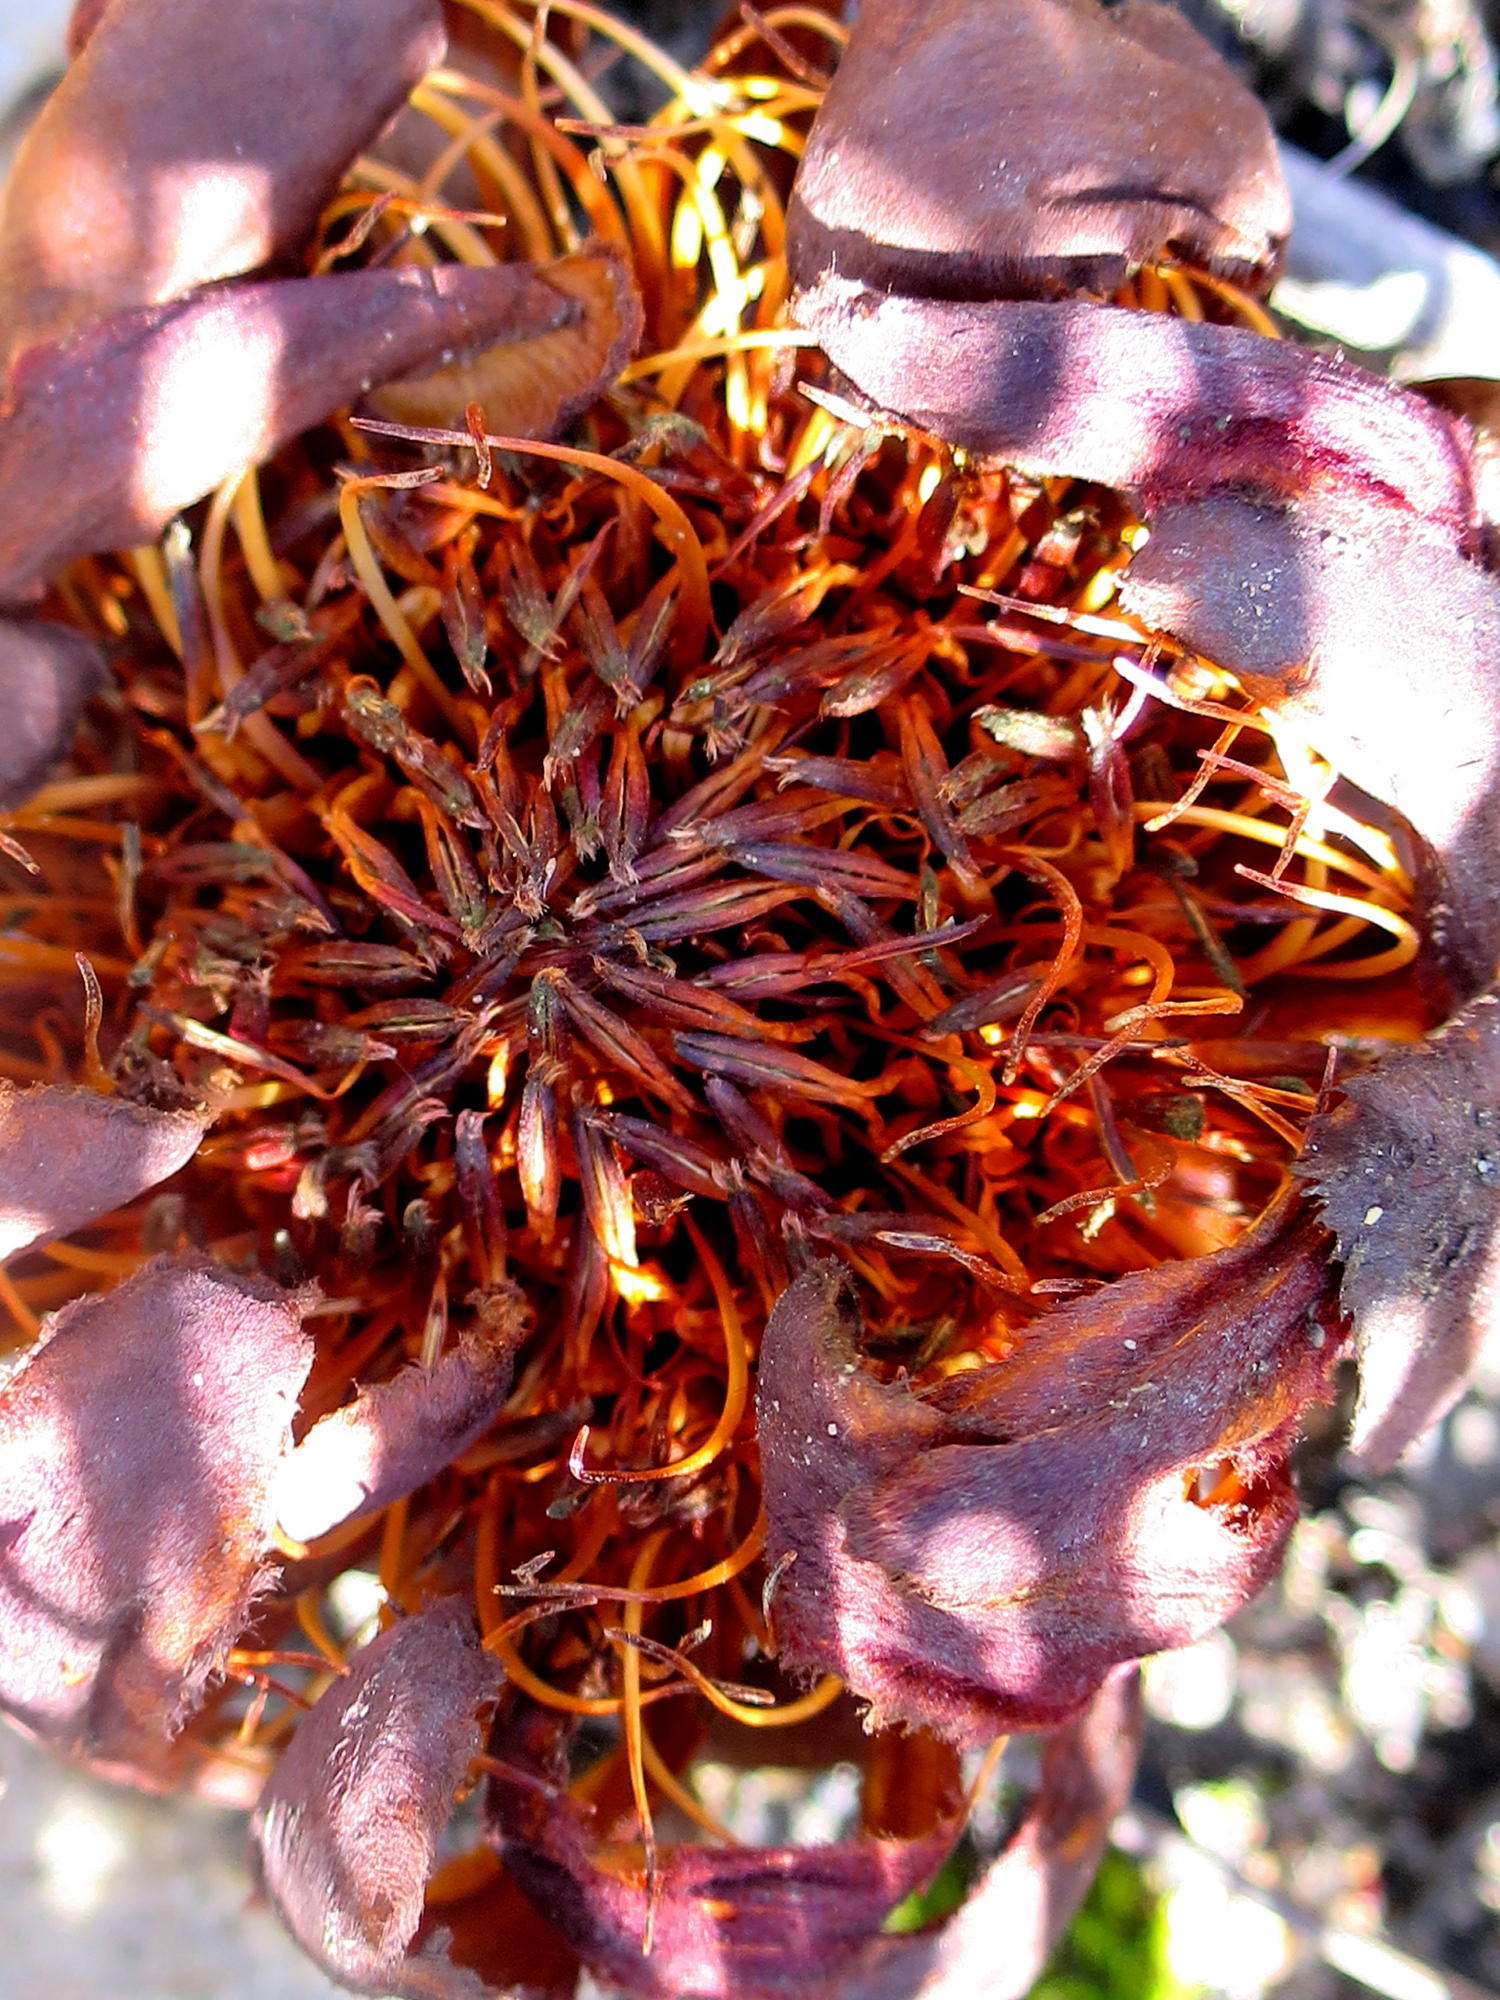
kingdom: Plantae
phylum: Tracheophyta
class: Magnoliopsida
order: Proteales
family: Proteaceae
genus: Protea
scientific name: Protea amplexicaulis
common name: Clasping-leaf sugarbush
